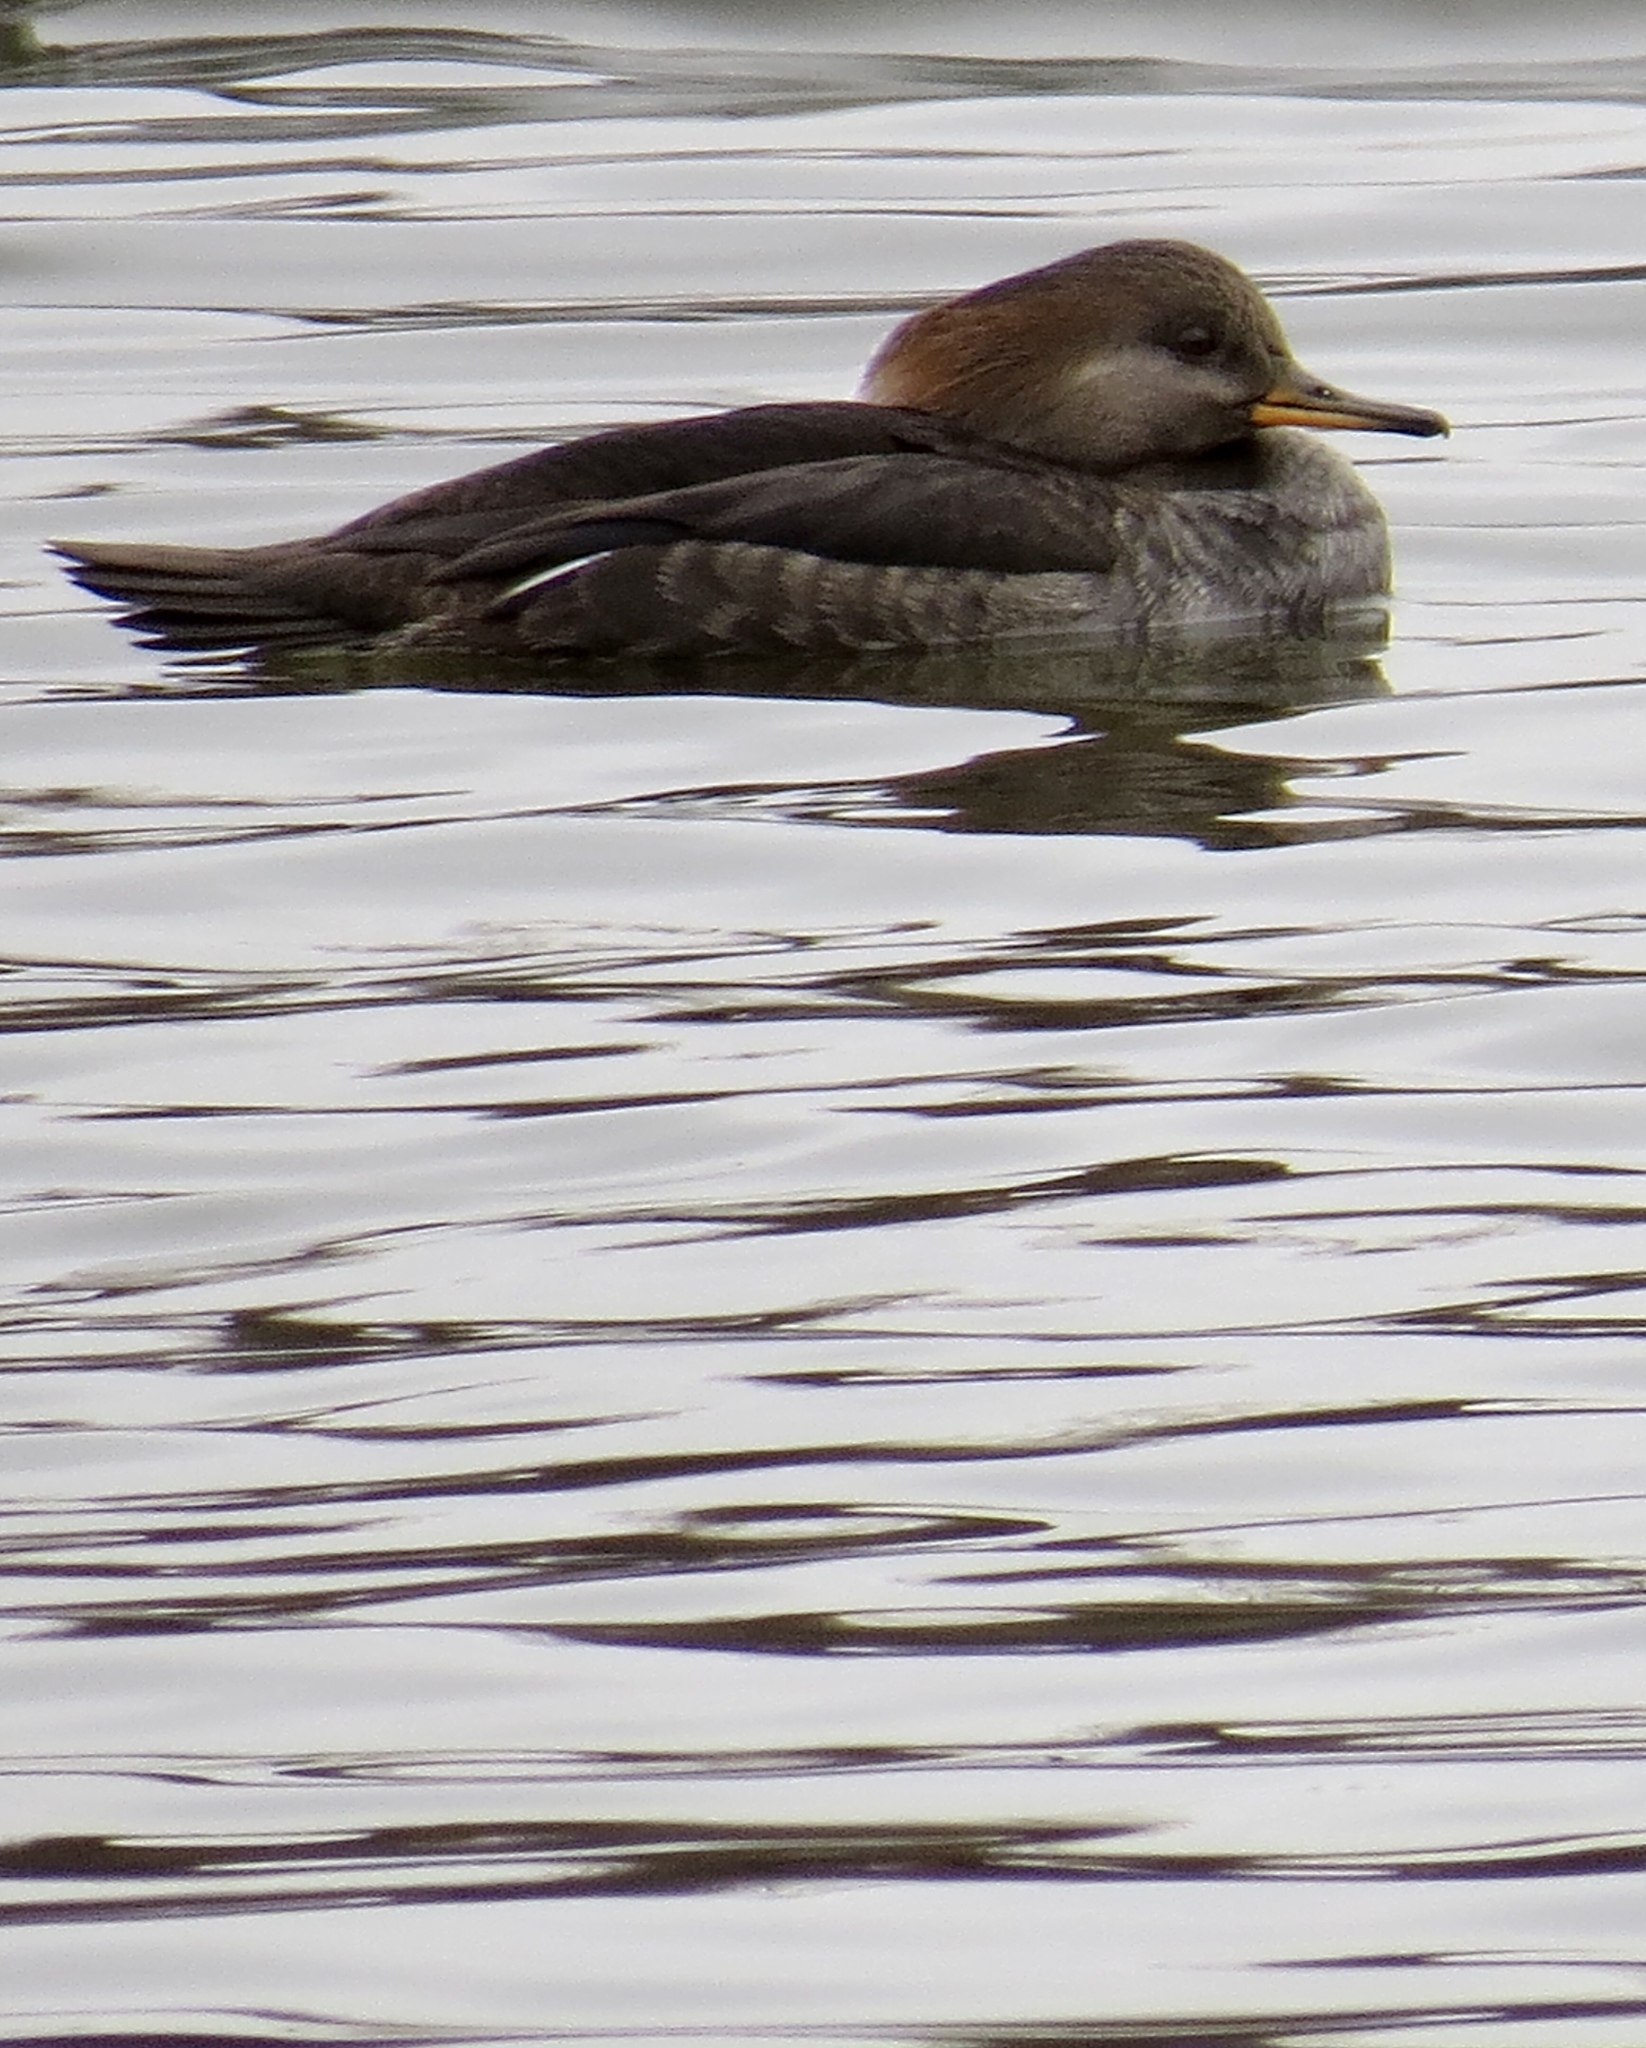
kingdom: Animalia
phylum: Chordata
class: Aves
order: Anseriformes
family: Anatidae
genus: Lophodytes
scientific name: Lophodytes cucullatus
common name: Hooded merganser
